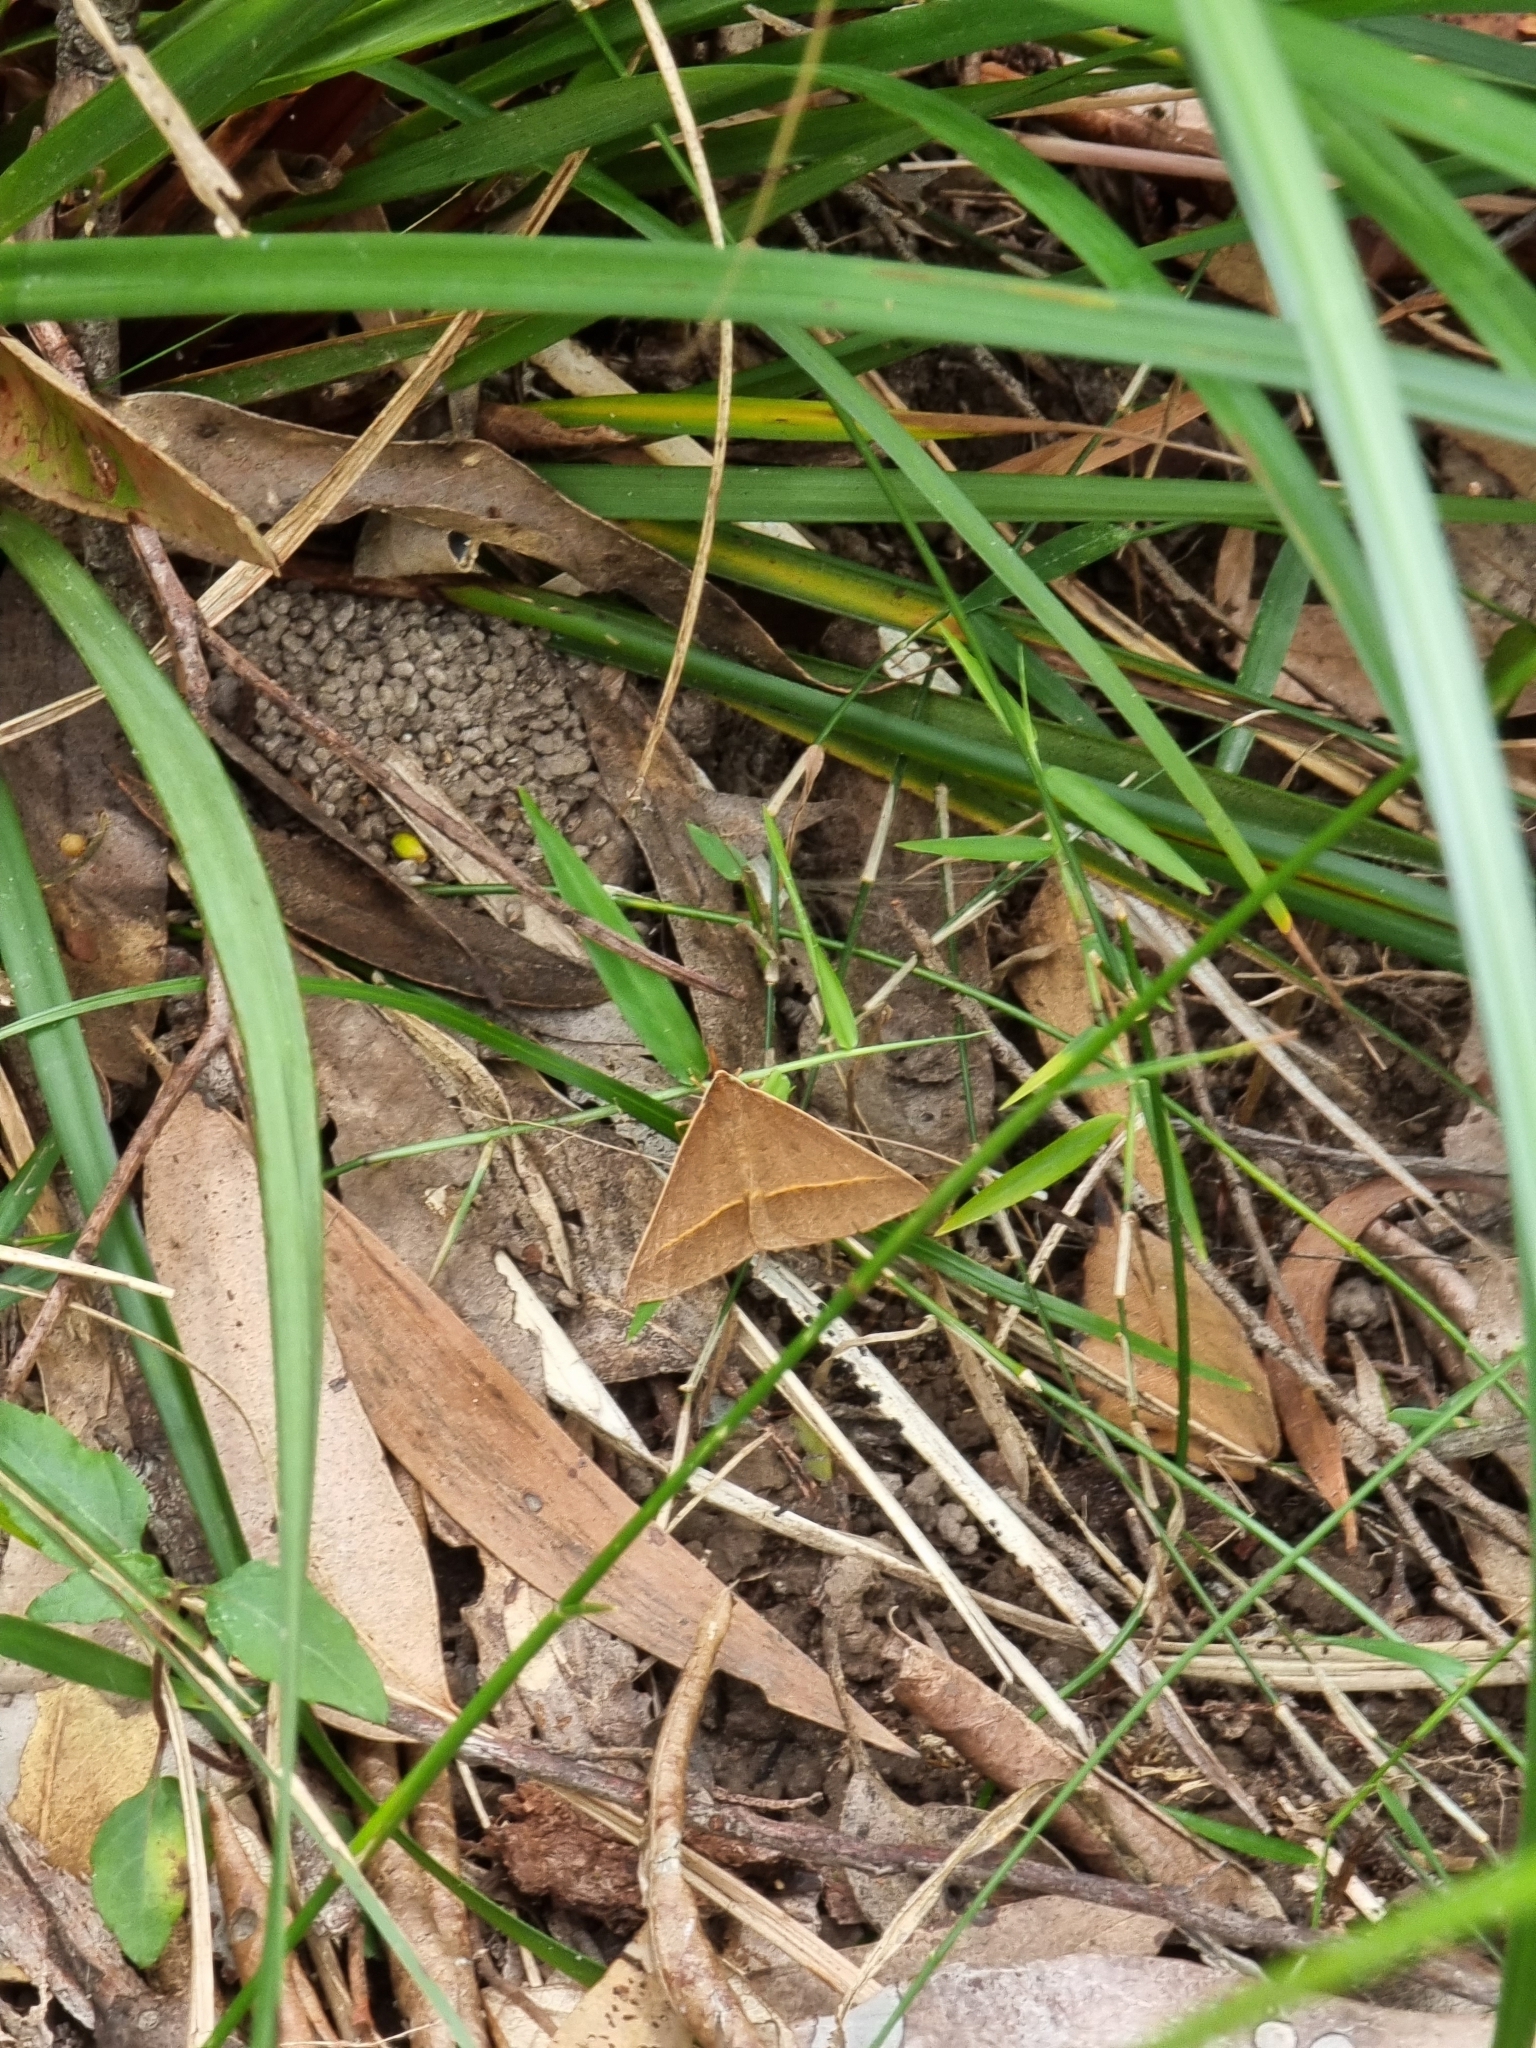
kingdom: Animalia
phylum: Arthropoda
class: Insecta
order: Phasmida
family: Phasmatidae
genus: Anchiale
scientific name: Anchiale austrotessulata
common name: Tessellated stick-insect
